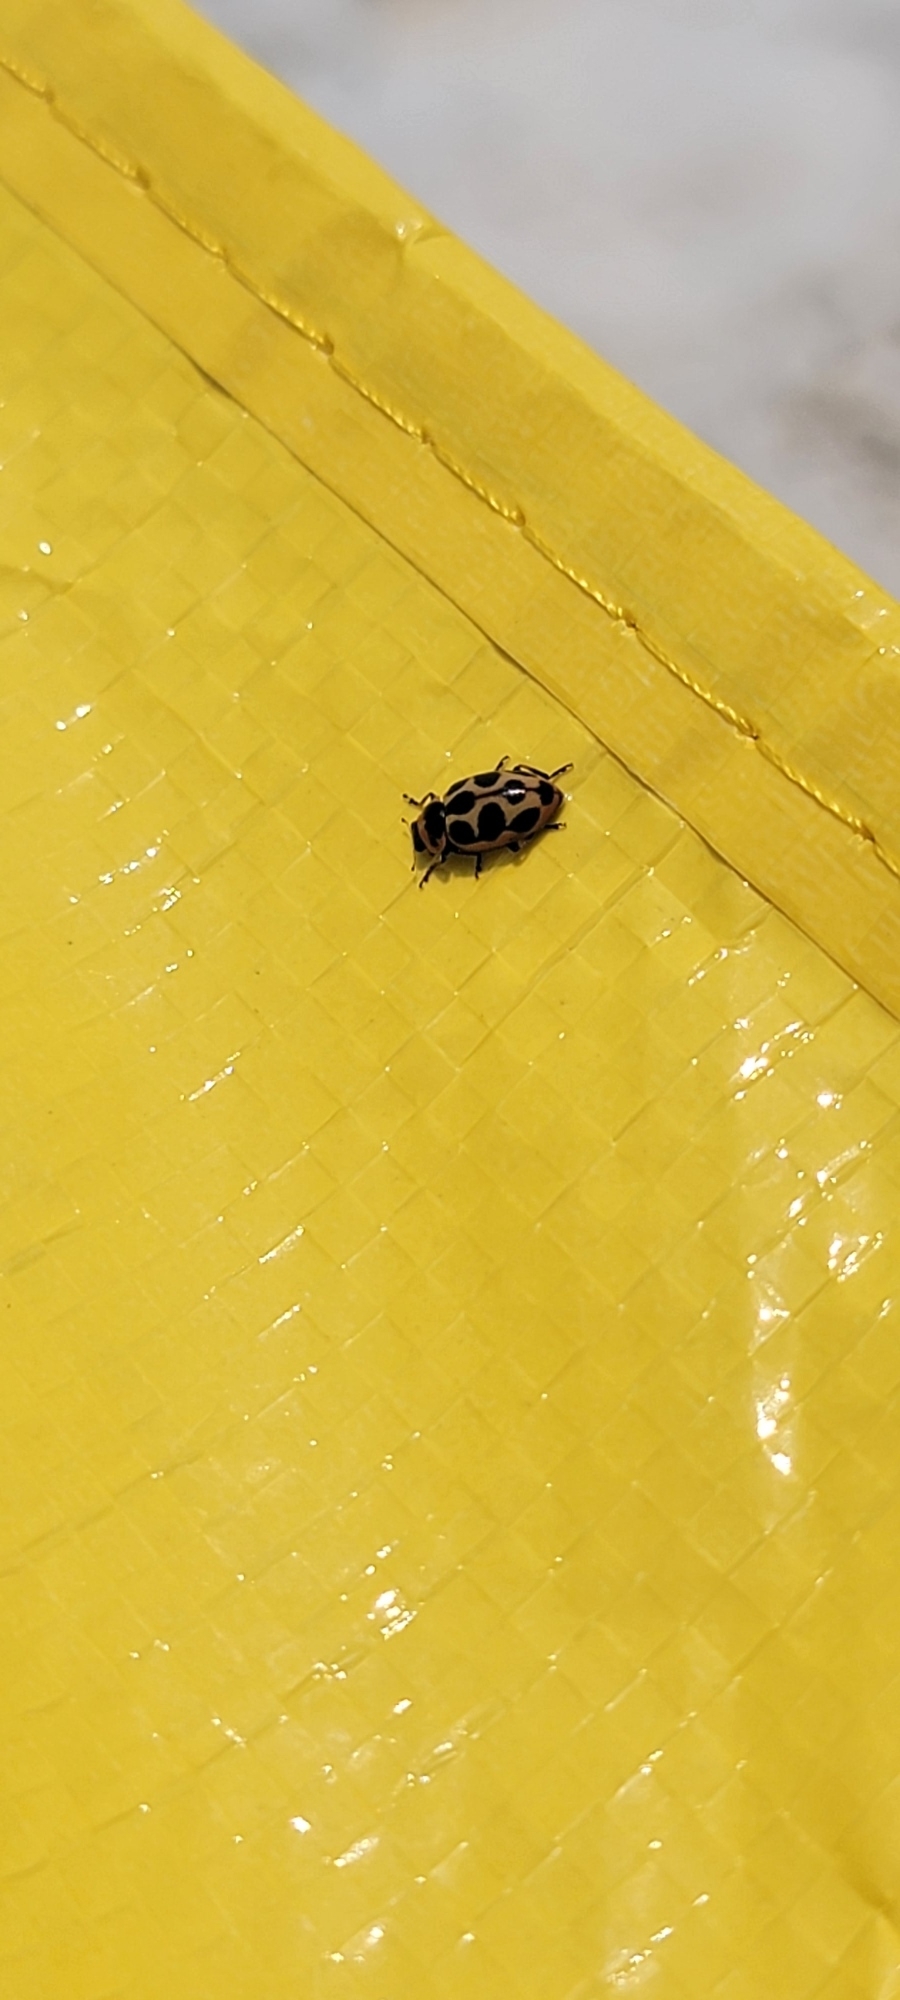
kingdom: Animalia
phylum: Arthropoda
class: Insecta
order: Coleoptera
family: Coccinellidae
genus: Naemia
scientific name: Naemia seriata
